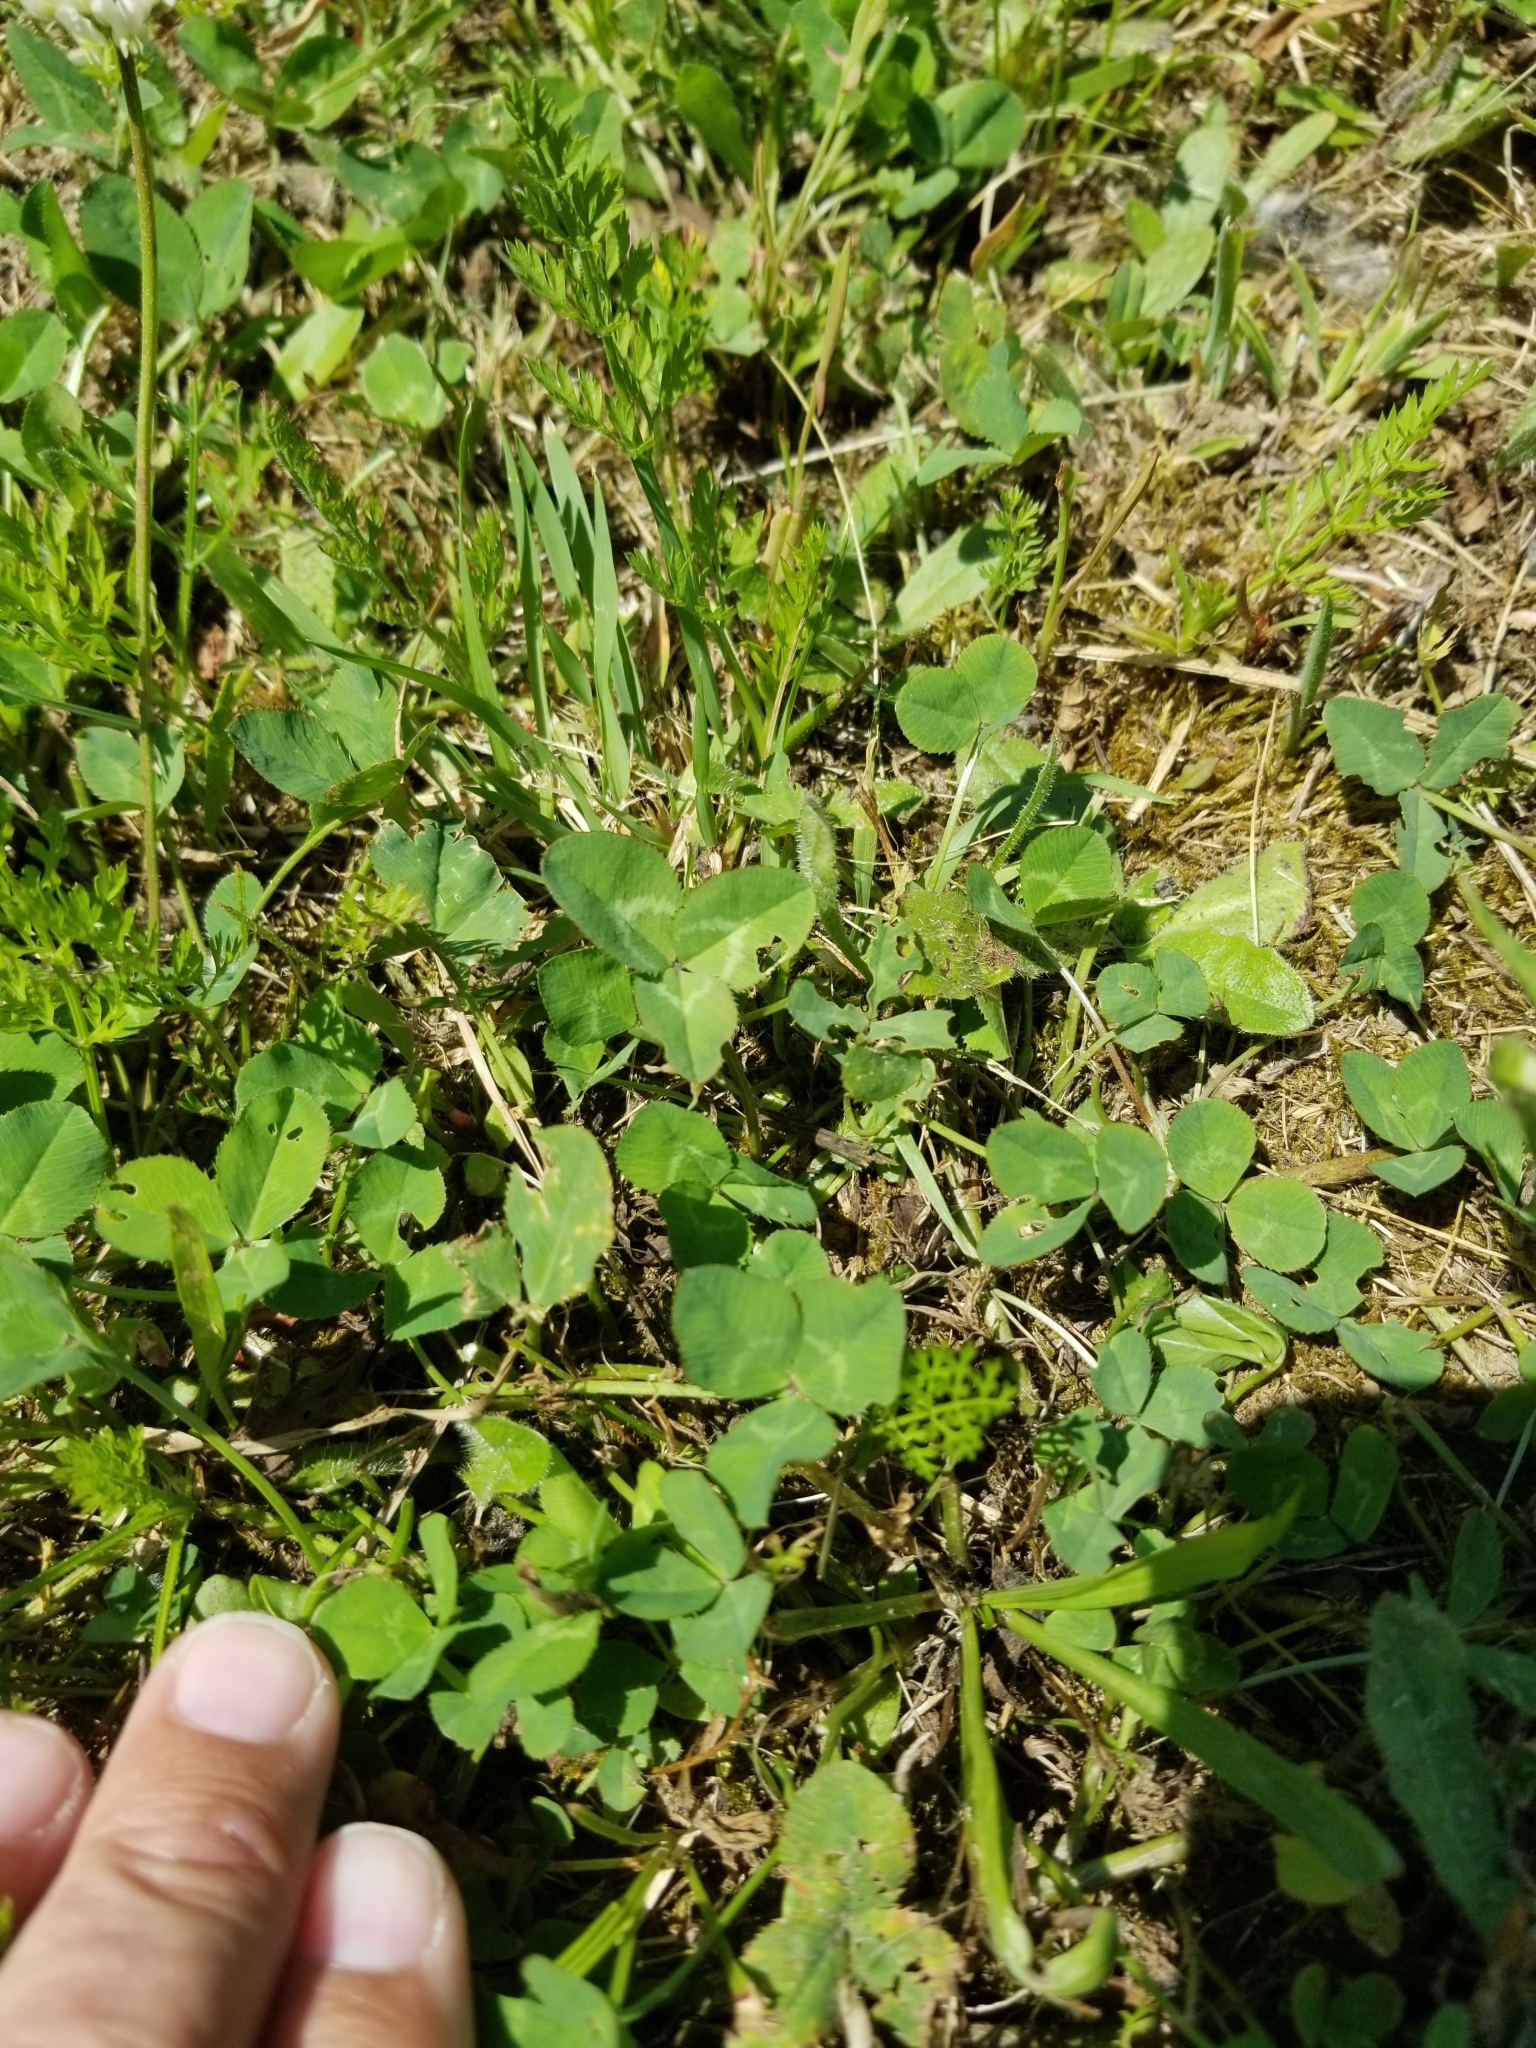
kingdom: Plantae
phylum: Tracheophyta
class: Magnoliopsida
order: Fabales
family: Fabaceae
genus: Trifolium
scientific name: Trifolium repens
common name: White clover
